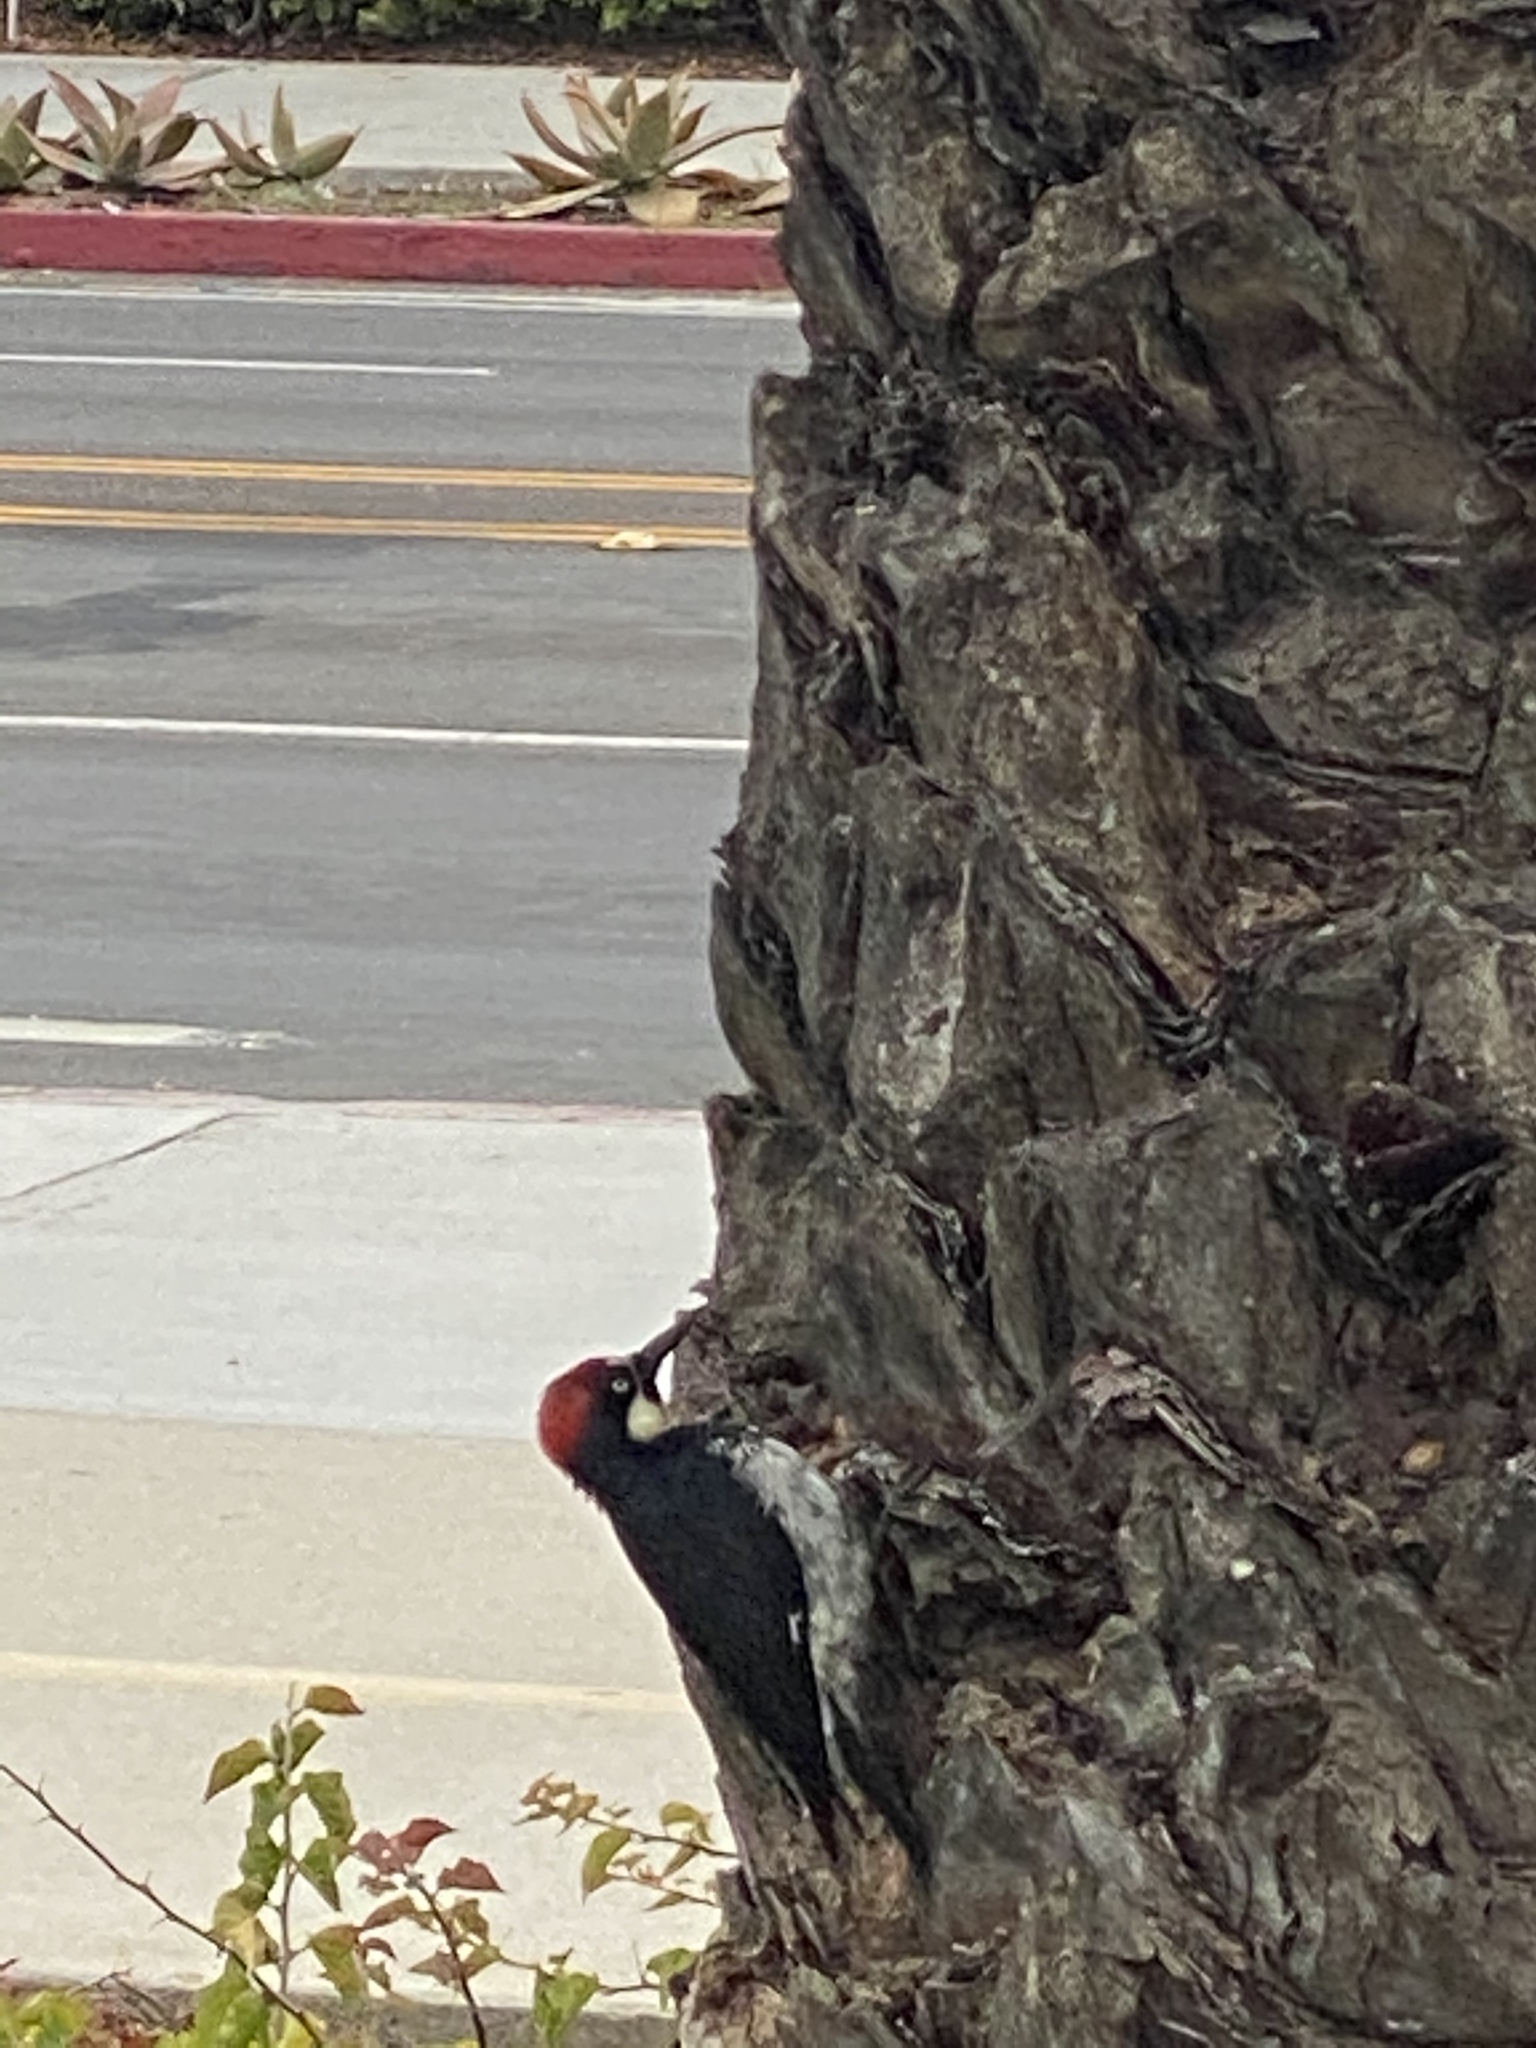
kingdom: Animalia
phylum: Chordata
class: Aves
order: Piciformes
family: Picidae
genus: Melanerpes
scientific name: Melanerpes formicivorus
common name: Acorn woodpecker
